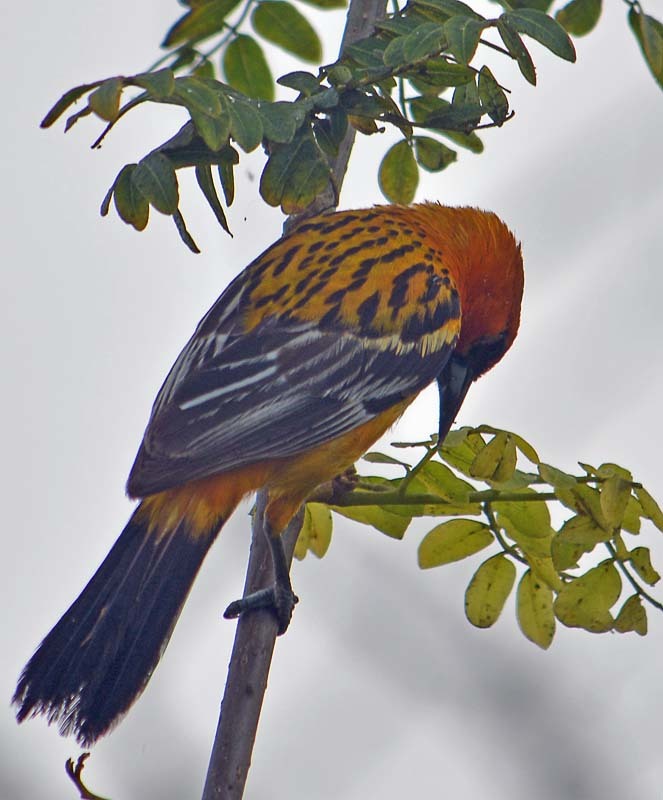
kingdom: Animalia
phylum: Chordata
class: Aves
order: Passeriformes
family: Icteridae
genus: Icterus
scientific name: Icterus pustulatus
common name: Streak-backed oriole
